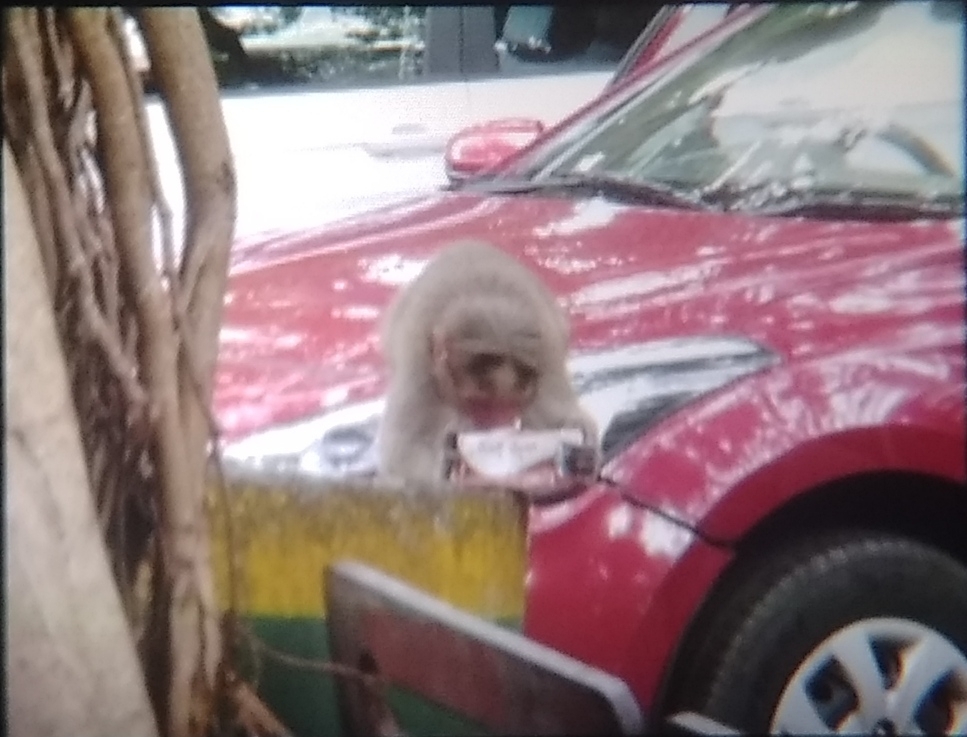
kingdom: Animalia
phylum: Chordata
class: Mammalia
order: Primates
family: Cercopithecidae
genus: Macaca
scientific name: Macaca radiata
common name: Bonnet macaque
